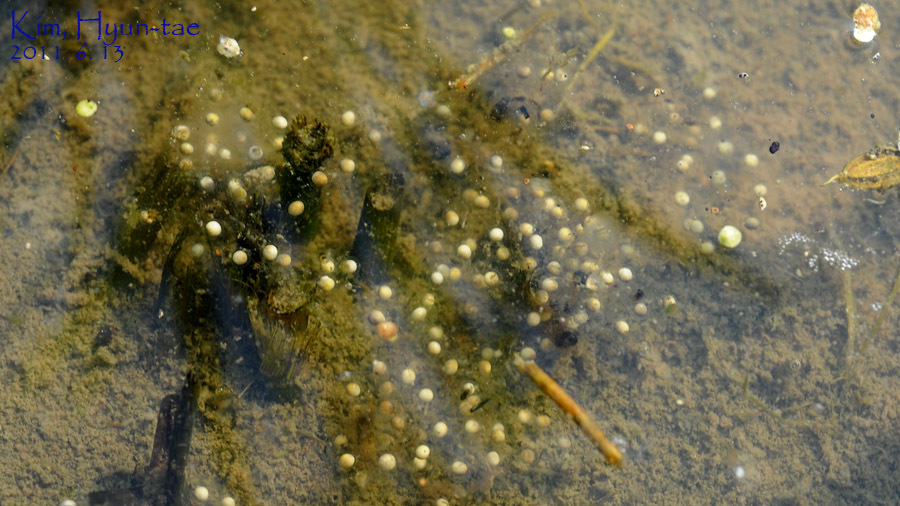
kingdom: Animalia
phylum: Chordata
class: Amphibia
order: Anura
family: Hylidae
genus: Dryophytes
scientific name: Dryophytes immaculatus
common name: North china treefrog
